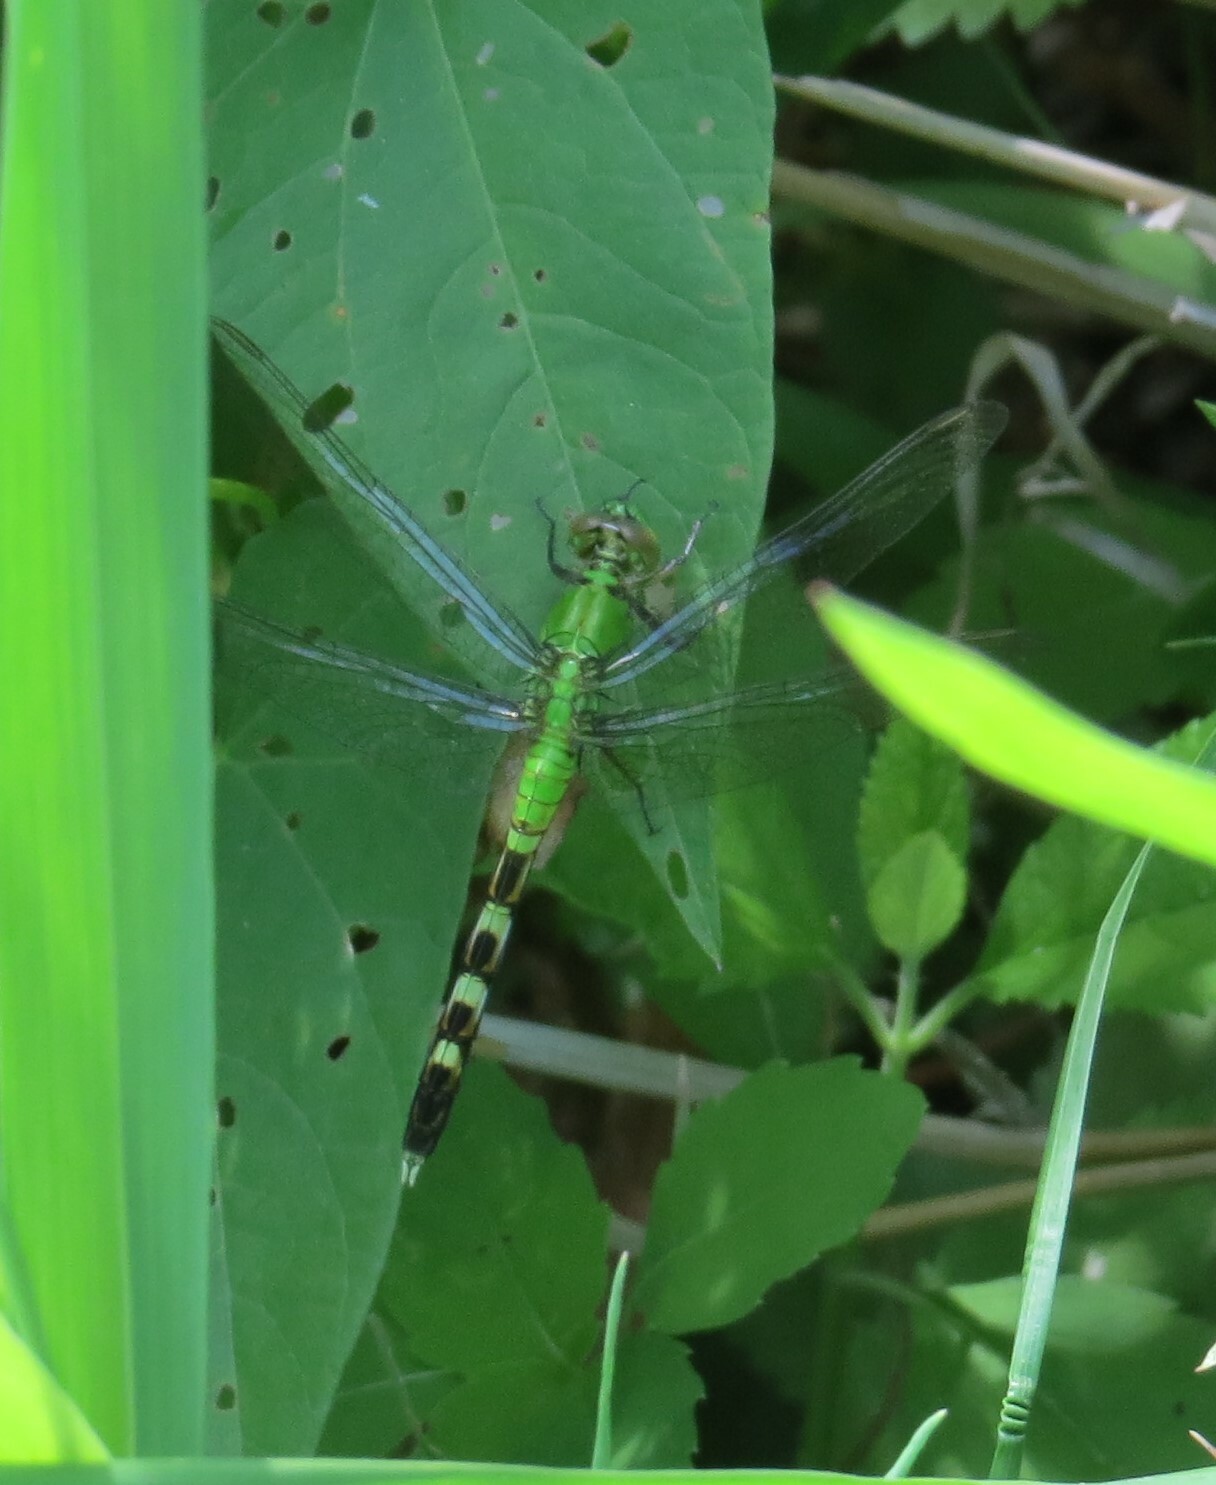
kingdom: Animalia
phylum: Arthropoda
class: Insecta
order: Odonata
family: Libellulidae
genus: Erythemis
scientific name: Erythemis simplicicollis
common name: Eastern pondhawk
